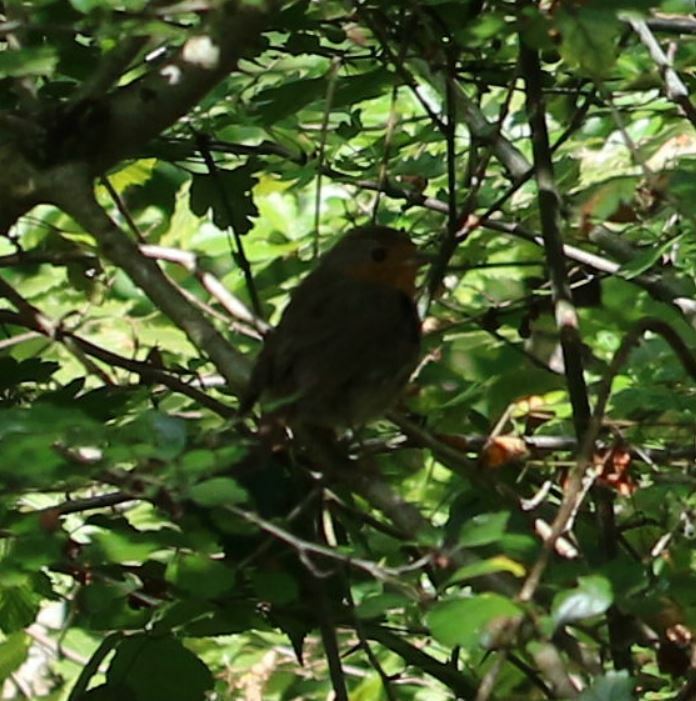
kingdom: Animalia
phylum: Chordata
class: Aves
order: Passeriformes
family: Muscicapidae
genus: Erithacus
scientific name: Erithacus rubecula
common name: European robin
